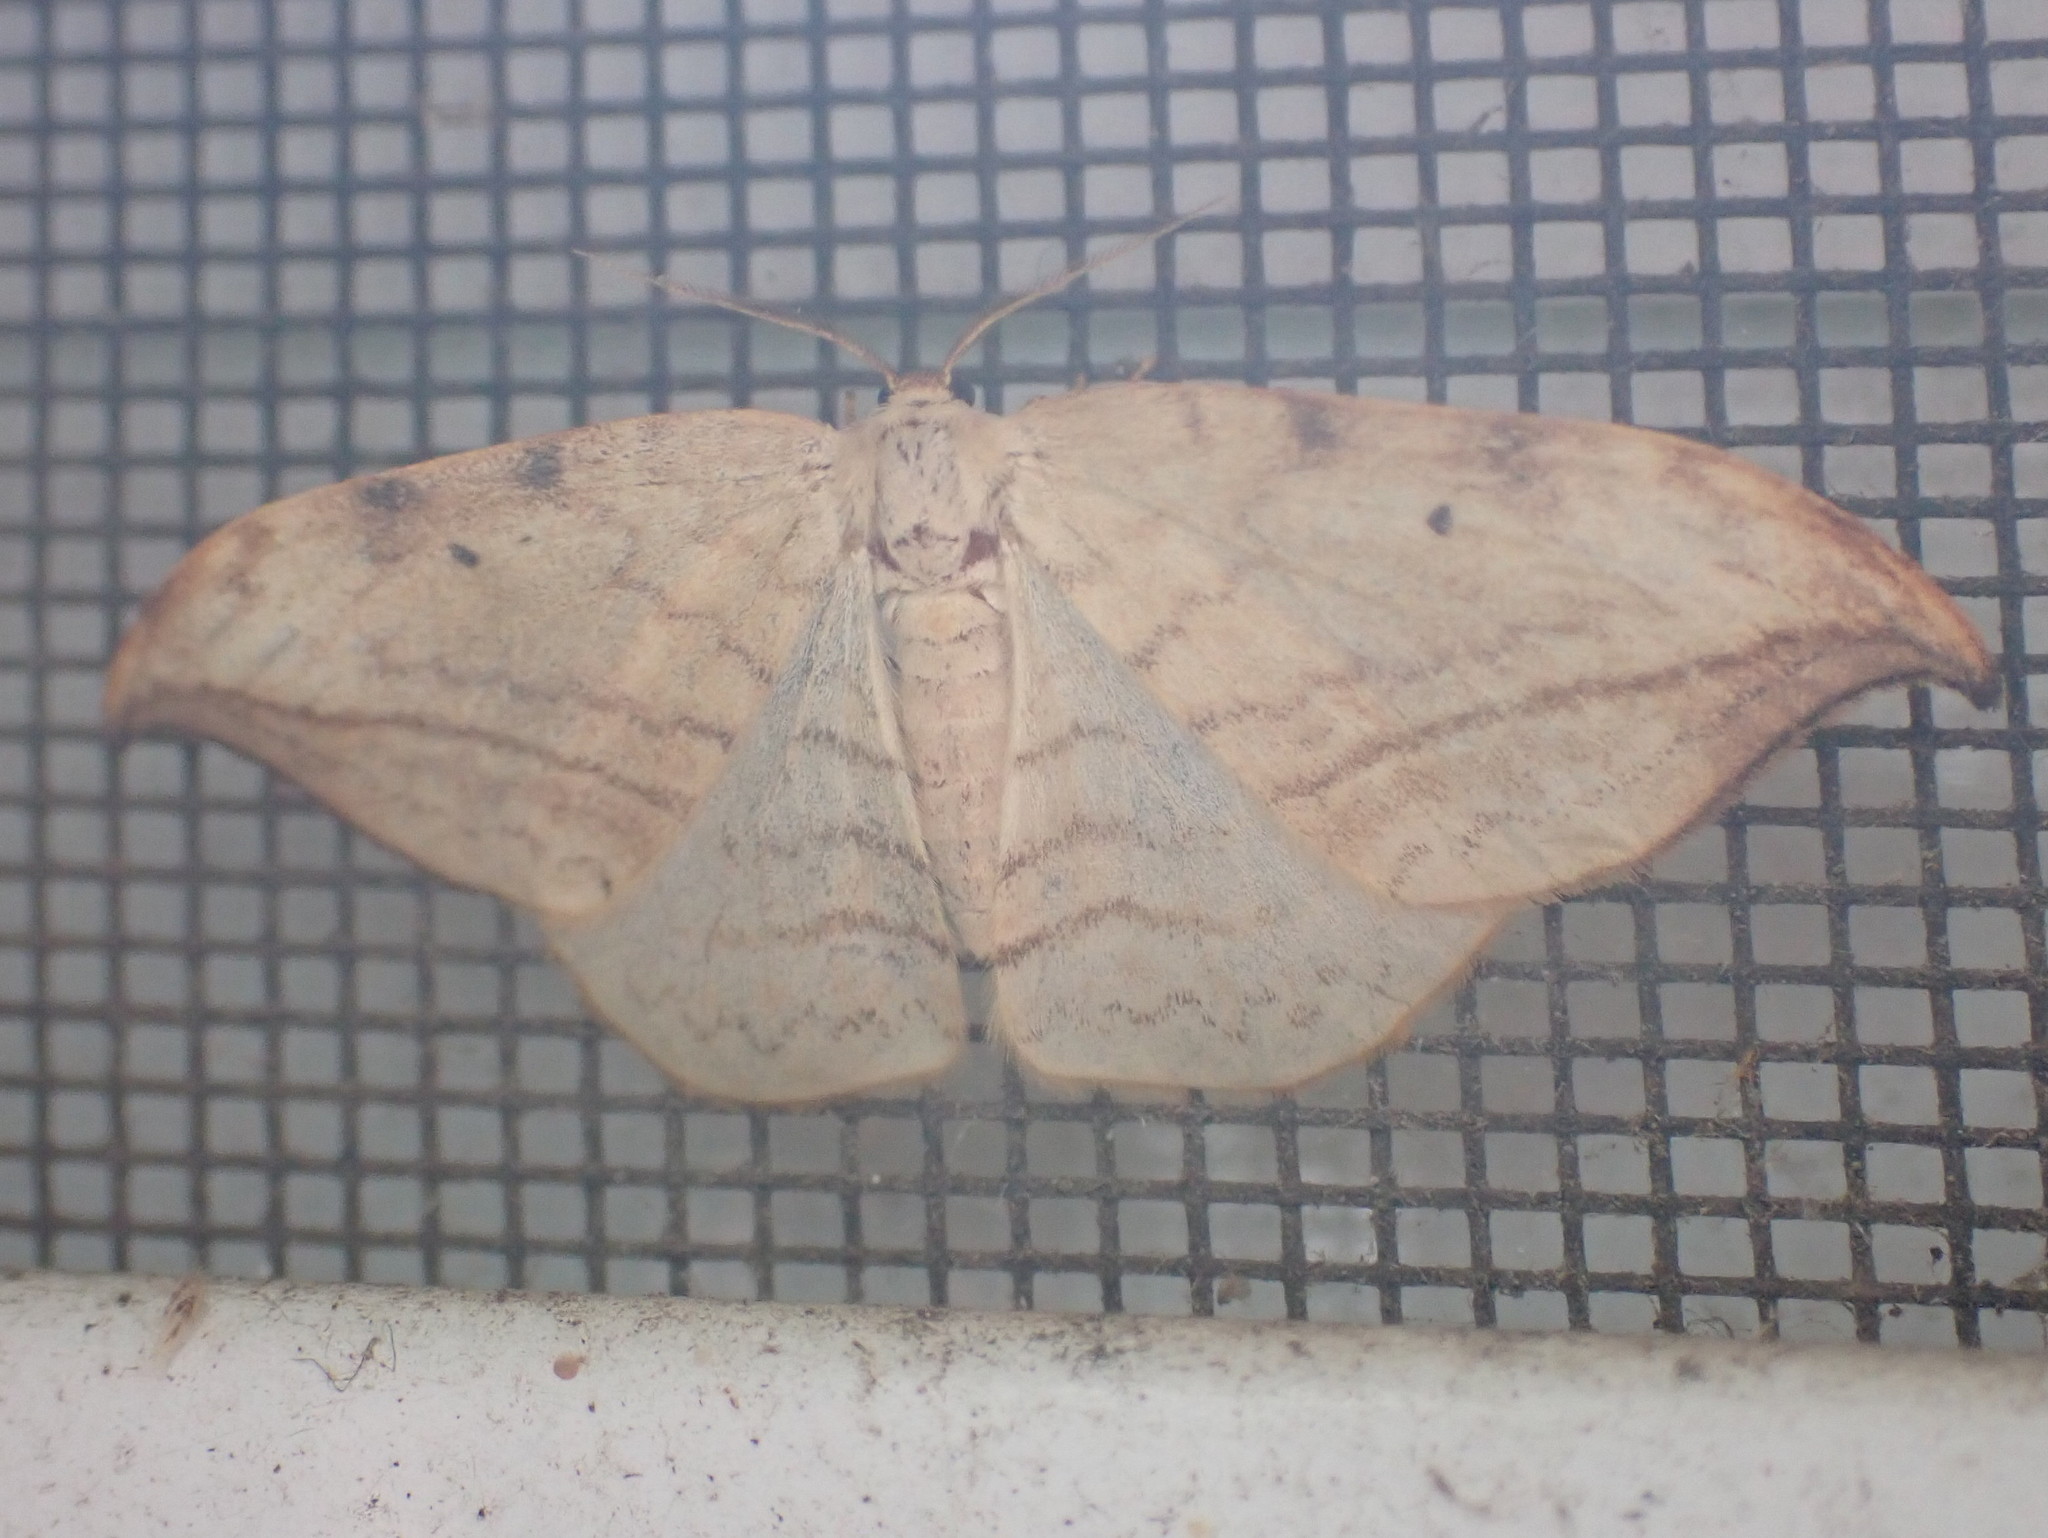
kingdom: Animalia
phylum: Arthropoda
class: Insecta
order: Lepidoptera
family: Drepanidae
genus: Drepana
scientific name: Drepana arcuata
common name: Arched hooktip moth
